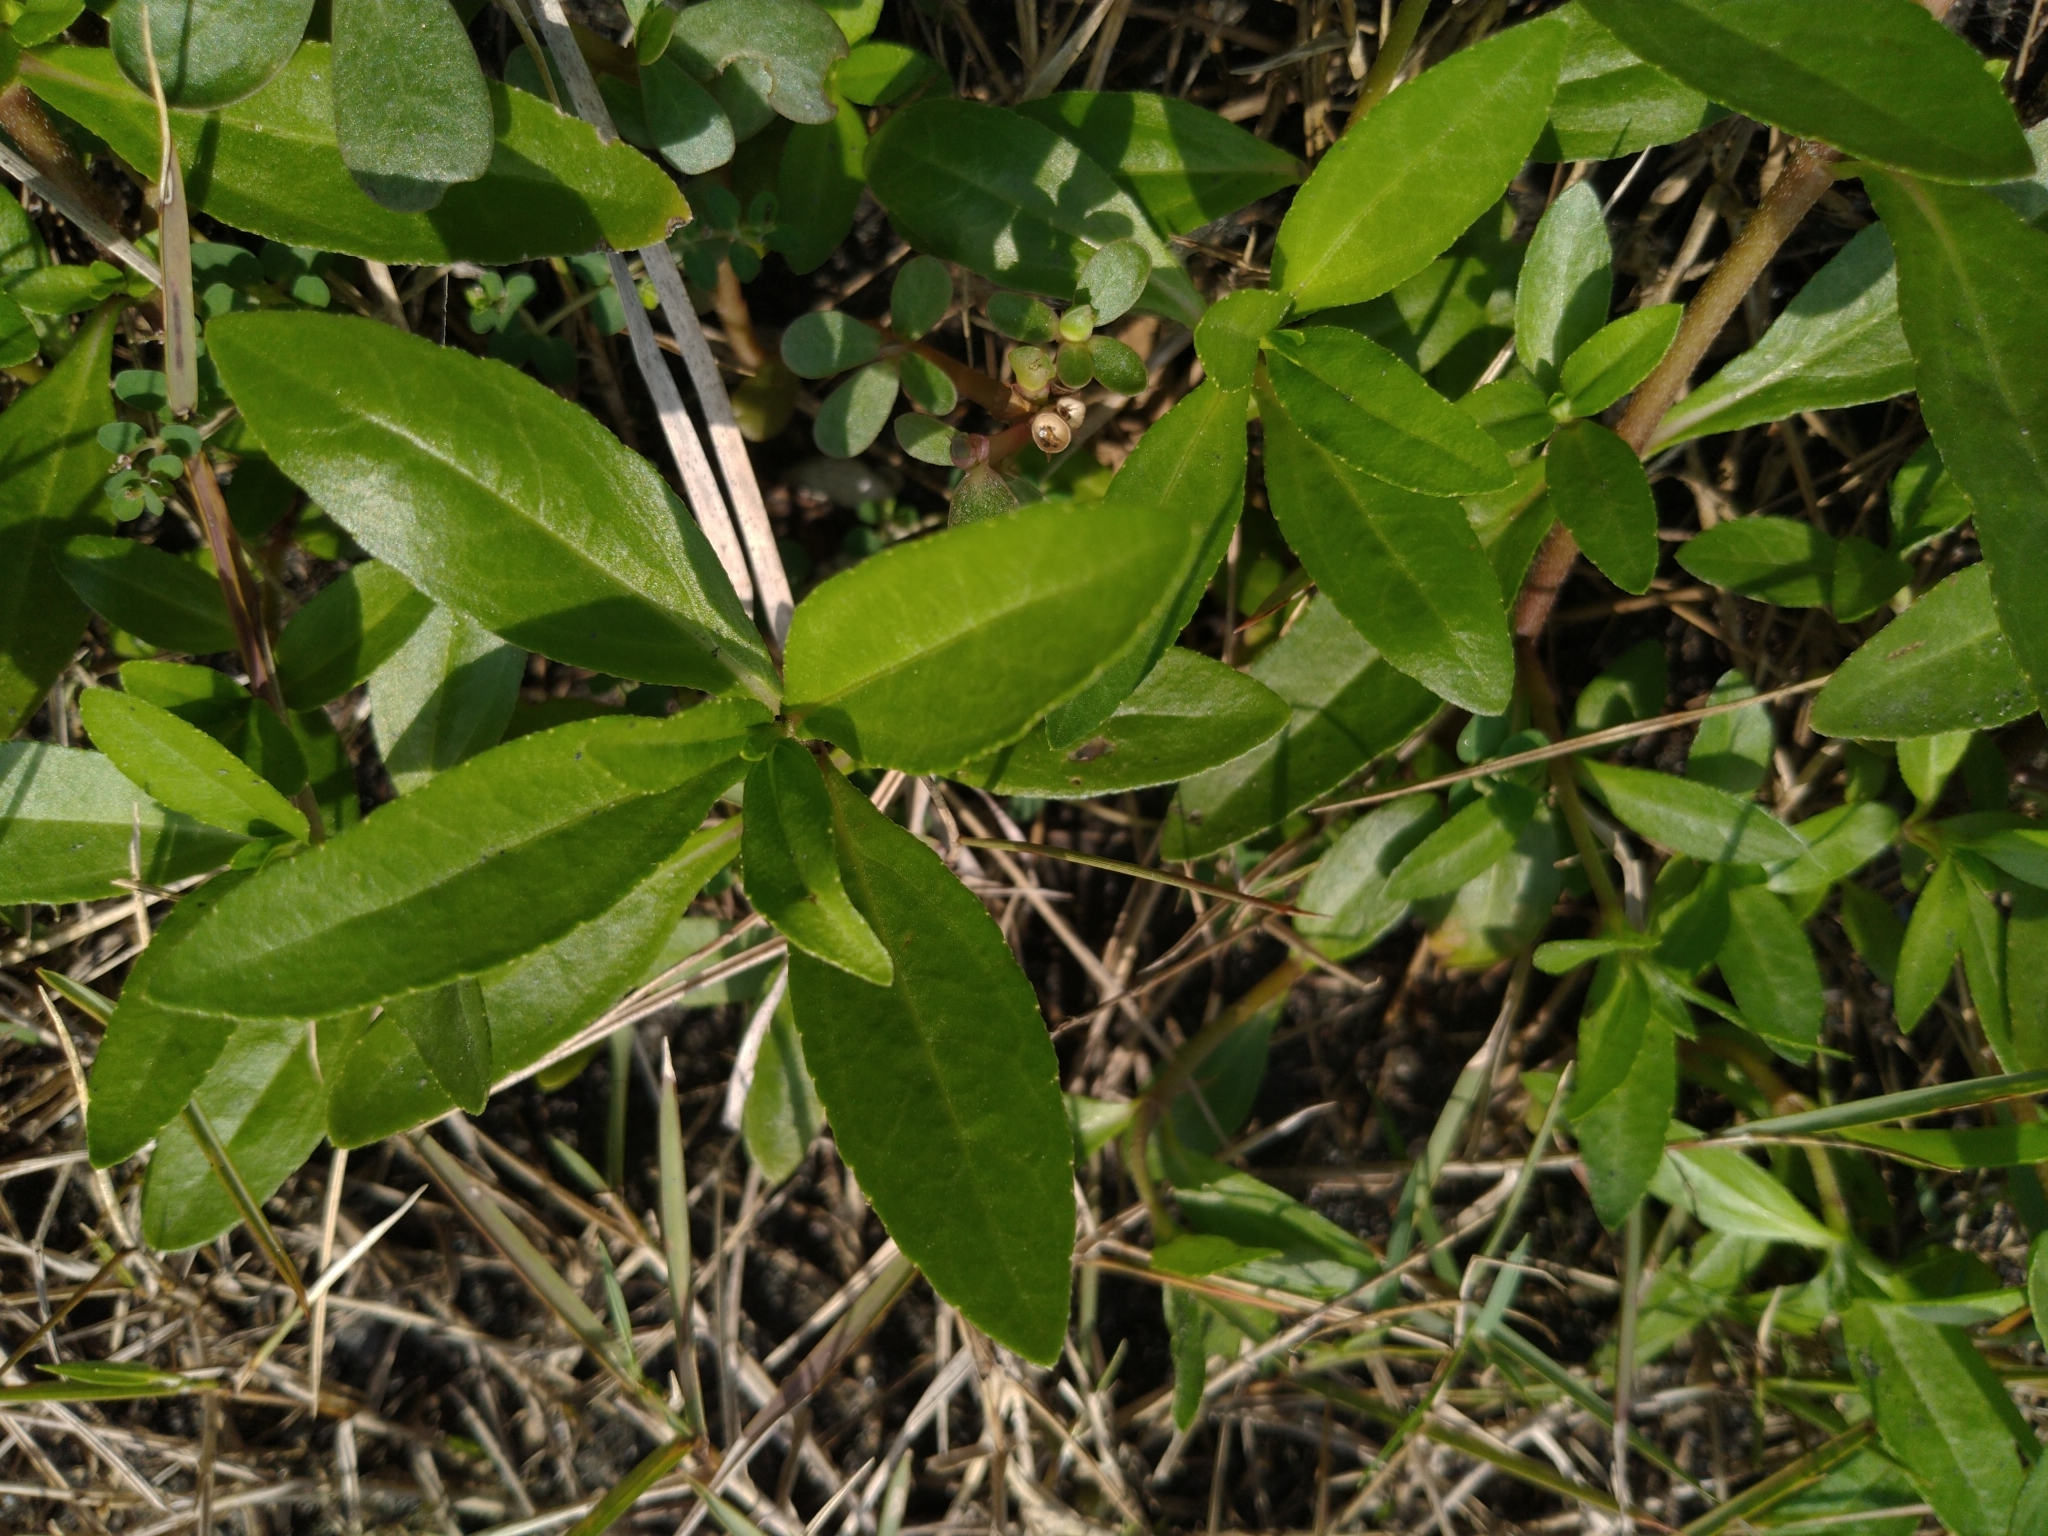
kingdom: Plantae
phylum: Tracheophyta
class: Magnoliopsida
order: Asterales
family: Asteraceae
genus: Eclipta
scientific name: Eclipta prostrata
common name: False daisy
